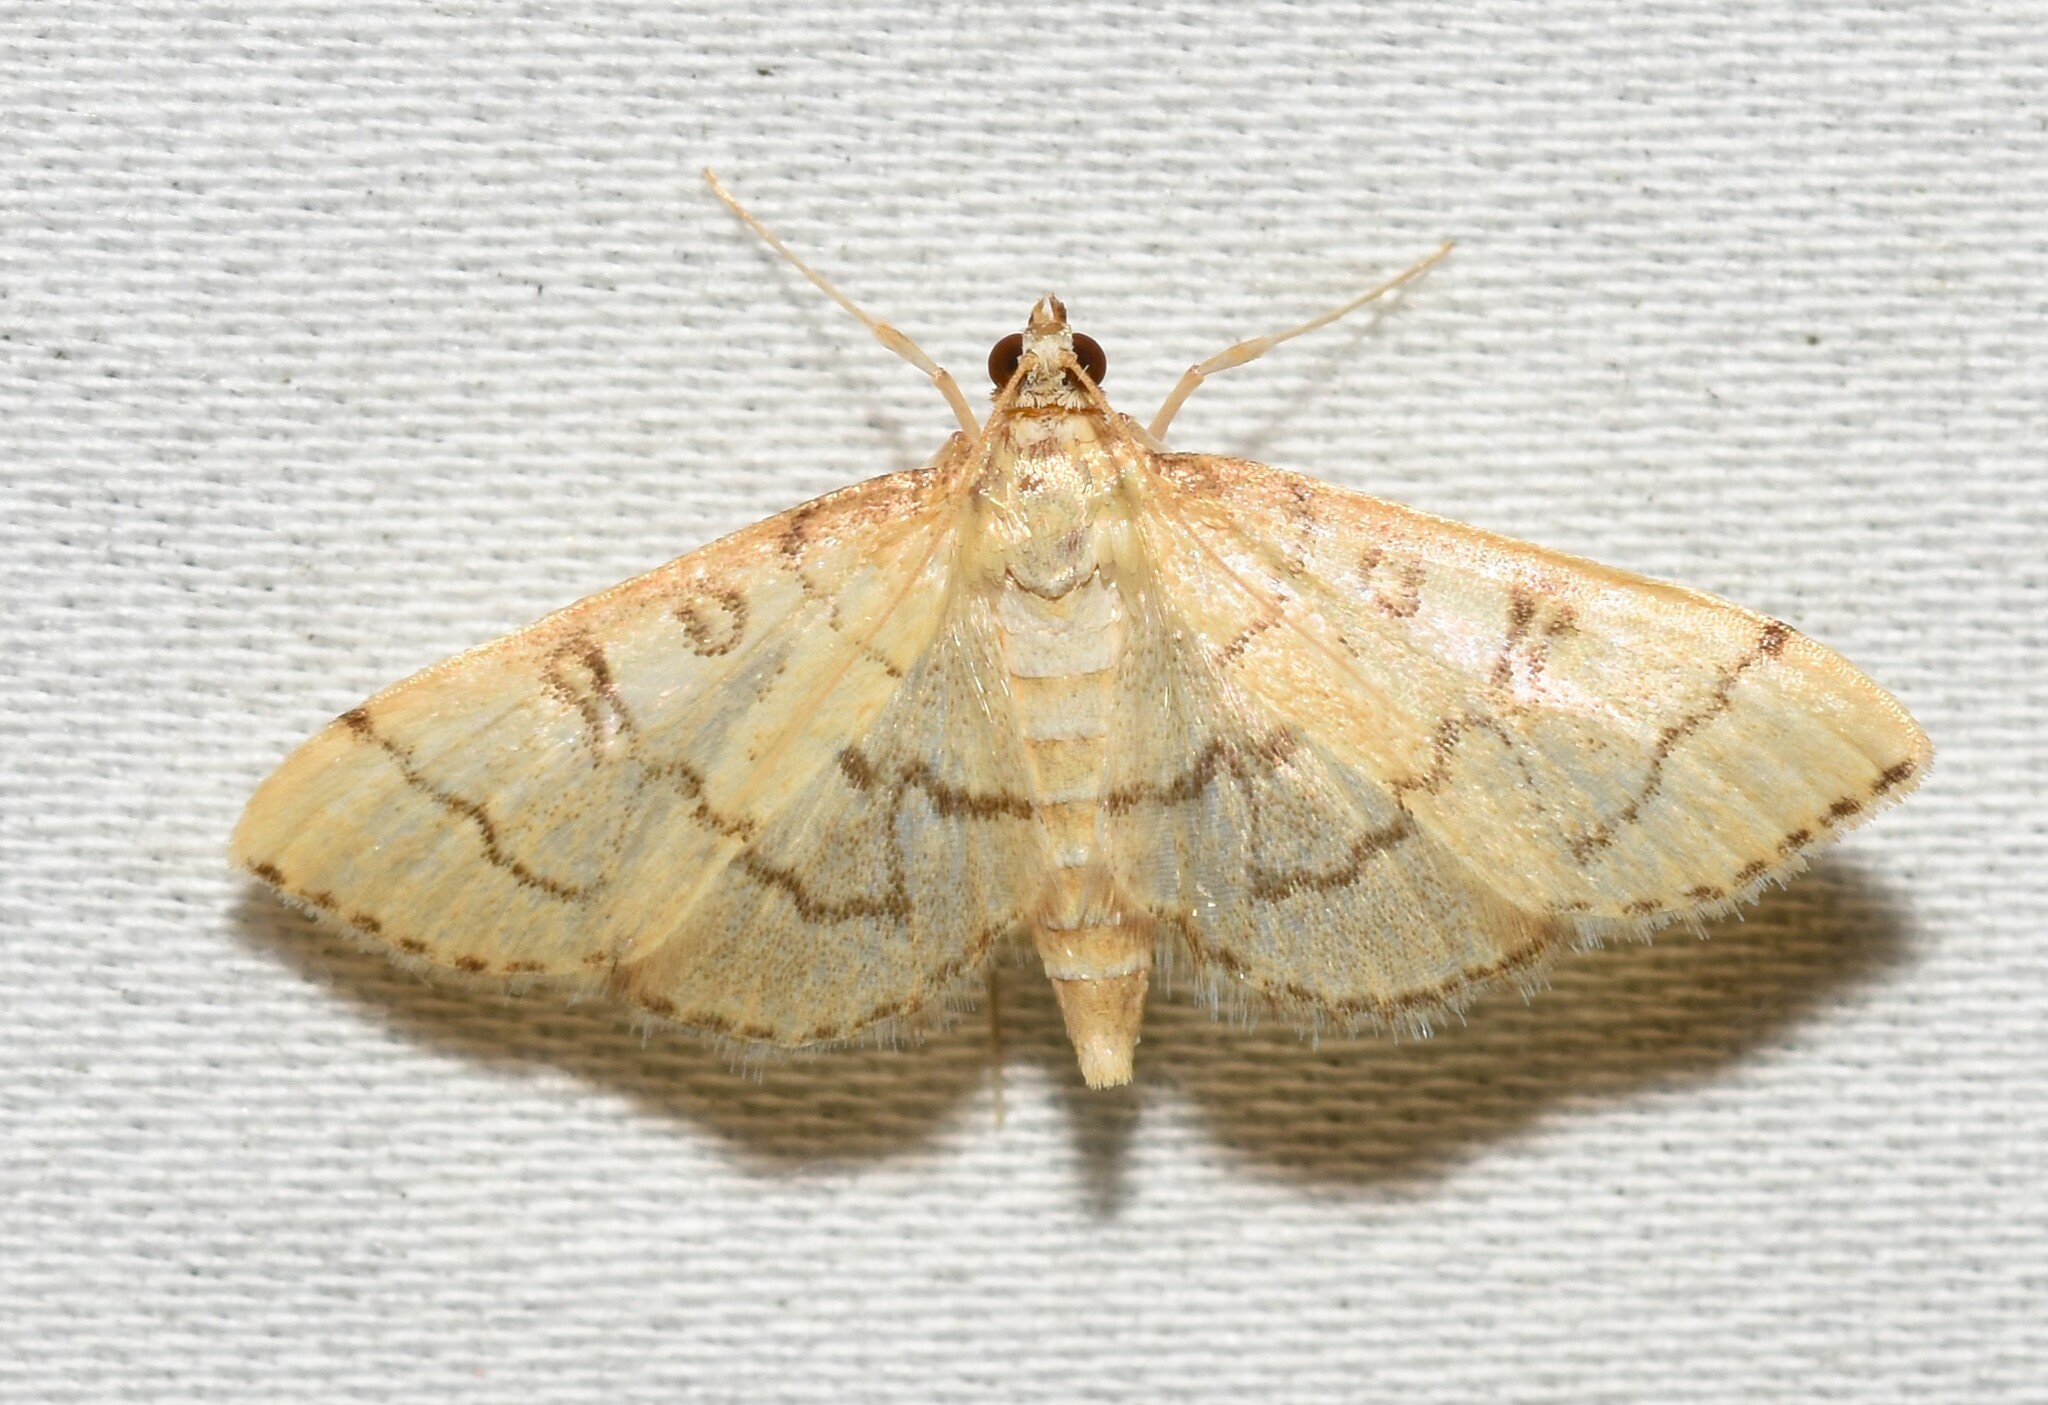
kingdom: Animalia
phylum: Arthropoda
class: Insecta
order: Lepidoptera
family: Crambidae
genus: Lamprosema
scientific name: Lamprosema Blepharomastix ranalis
